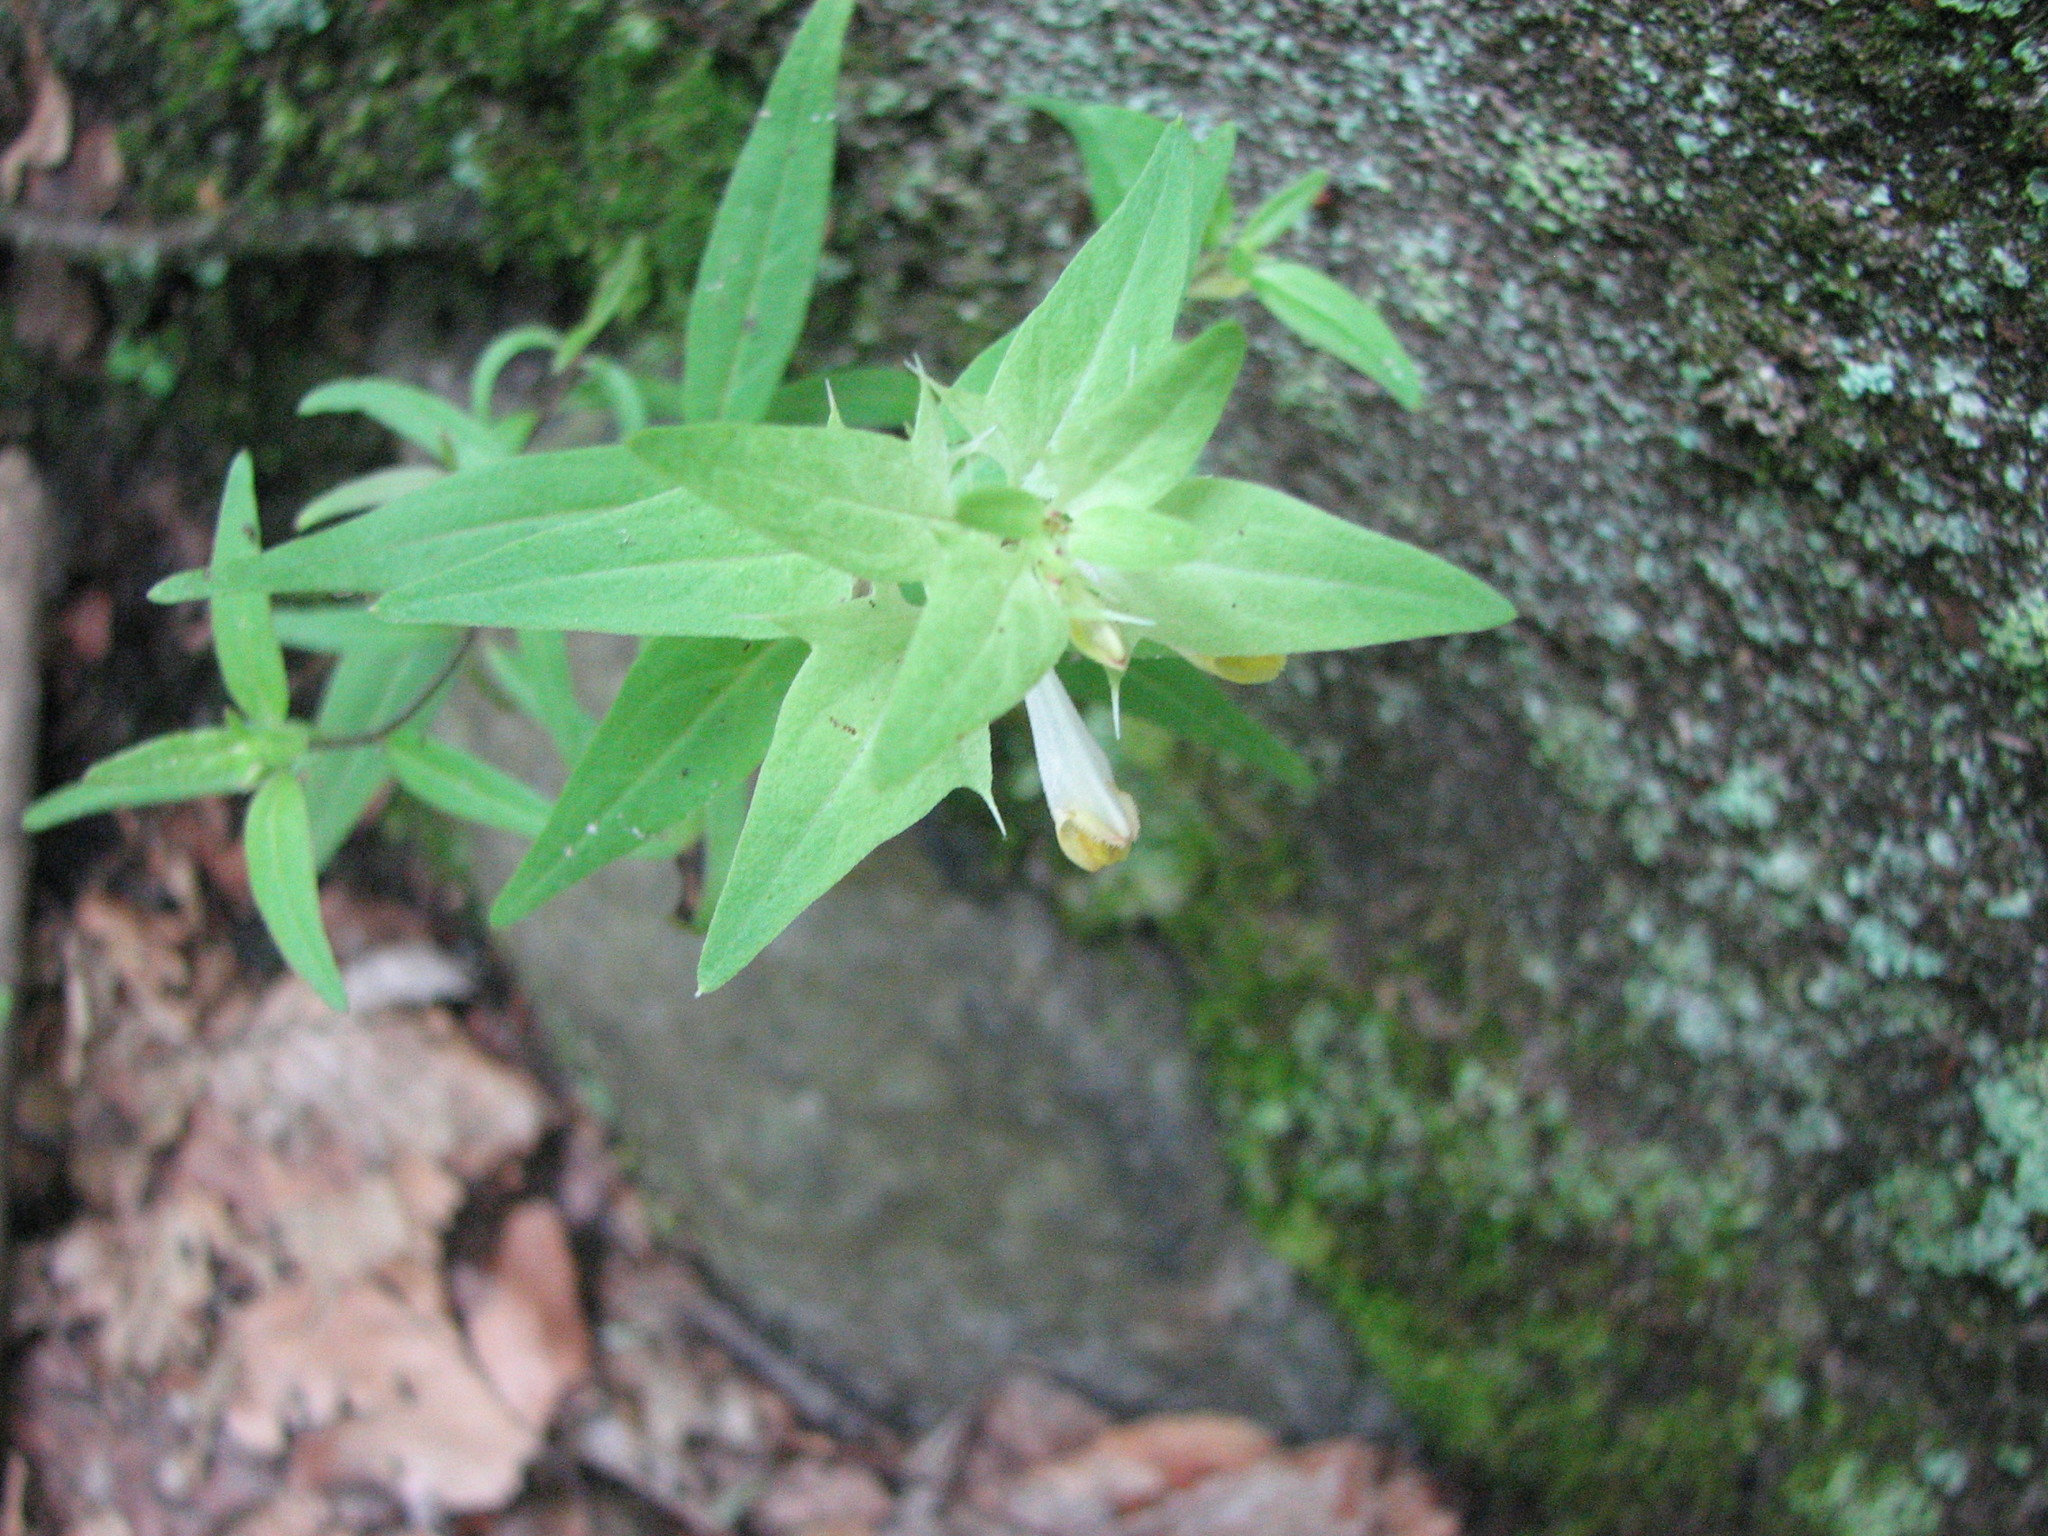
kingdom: Plantae
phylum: Tracheophyta
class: Magnoliopsida
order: Lamiales
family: Orobanchaceae
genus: Melampyrum
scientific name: Melampyrum lineare
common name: American cow-wheat
